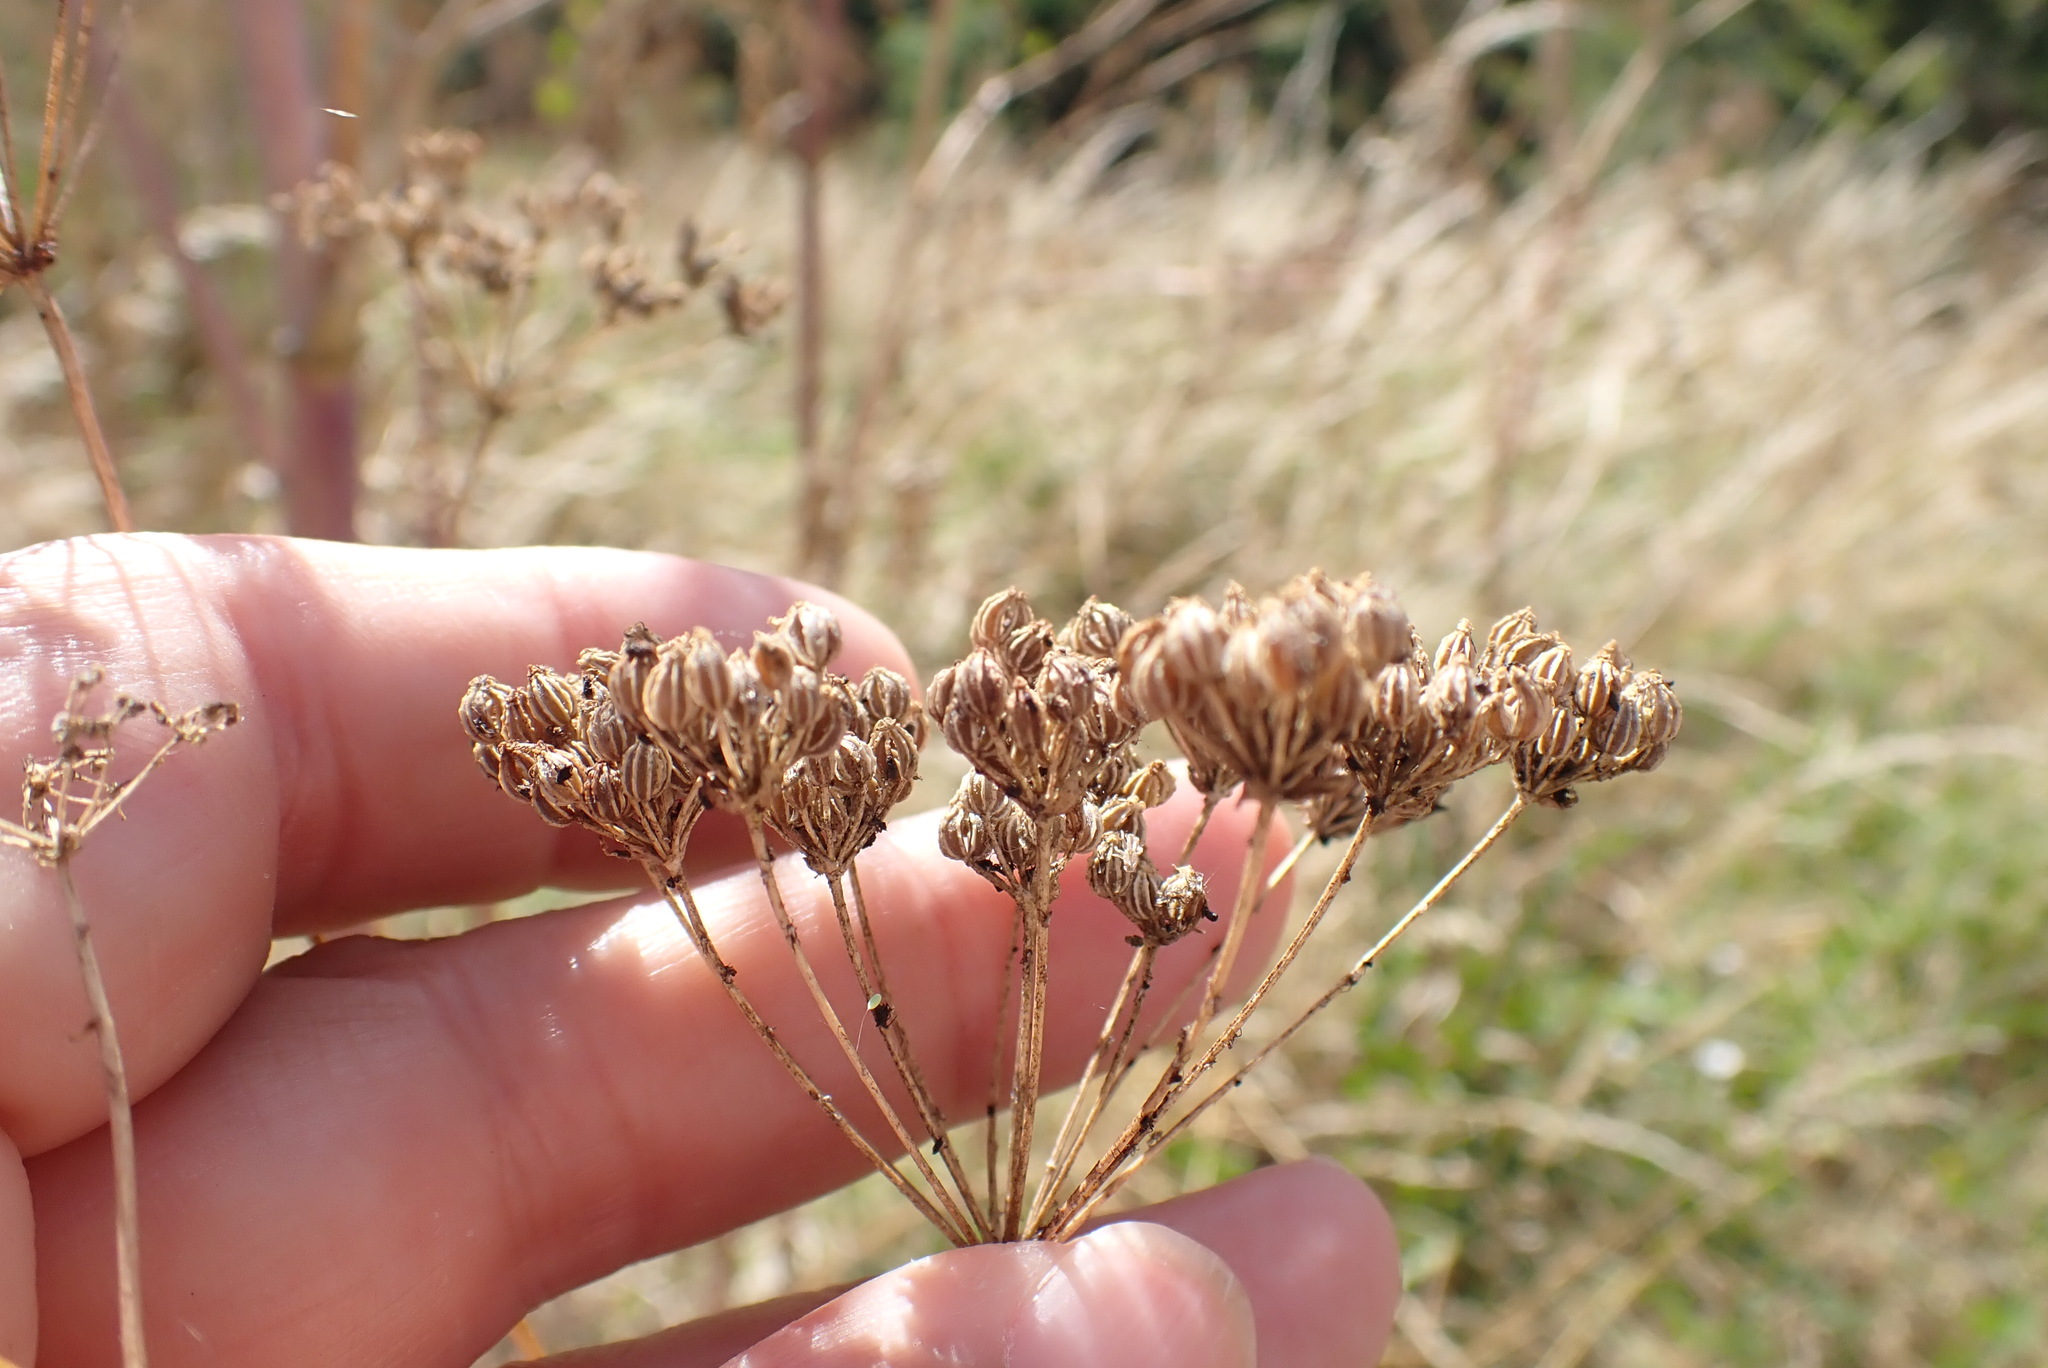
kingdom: Plantae
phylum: Tracheophyta
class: Magnoliopsida
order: Apiales
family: Apiaceae
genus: Conium
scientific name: Conium maculatum
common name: Hemlock
